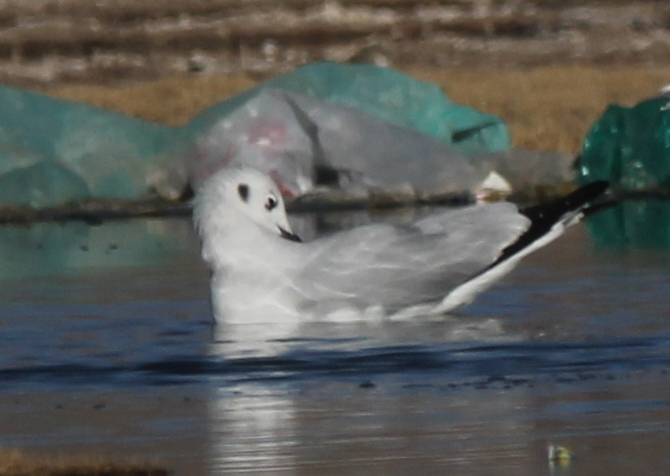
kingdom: Animalia
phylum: Chordata
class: Aves
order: Charadriiformes
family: Laridae
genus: Chroicocephalus
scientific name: Chroicocephalus serranus
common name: Andean gull
